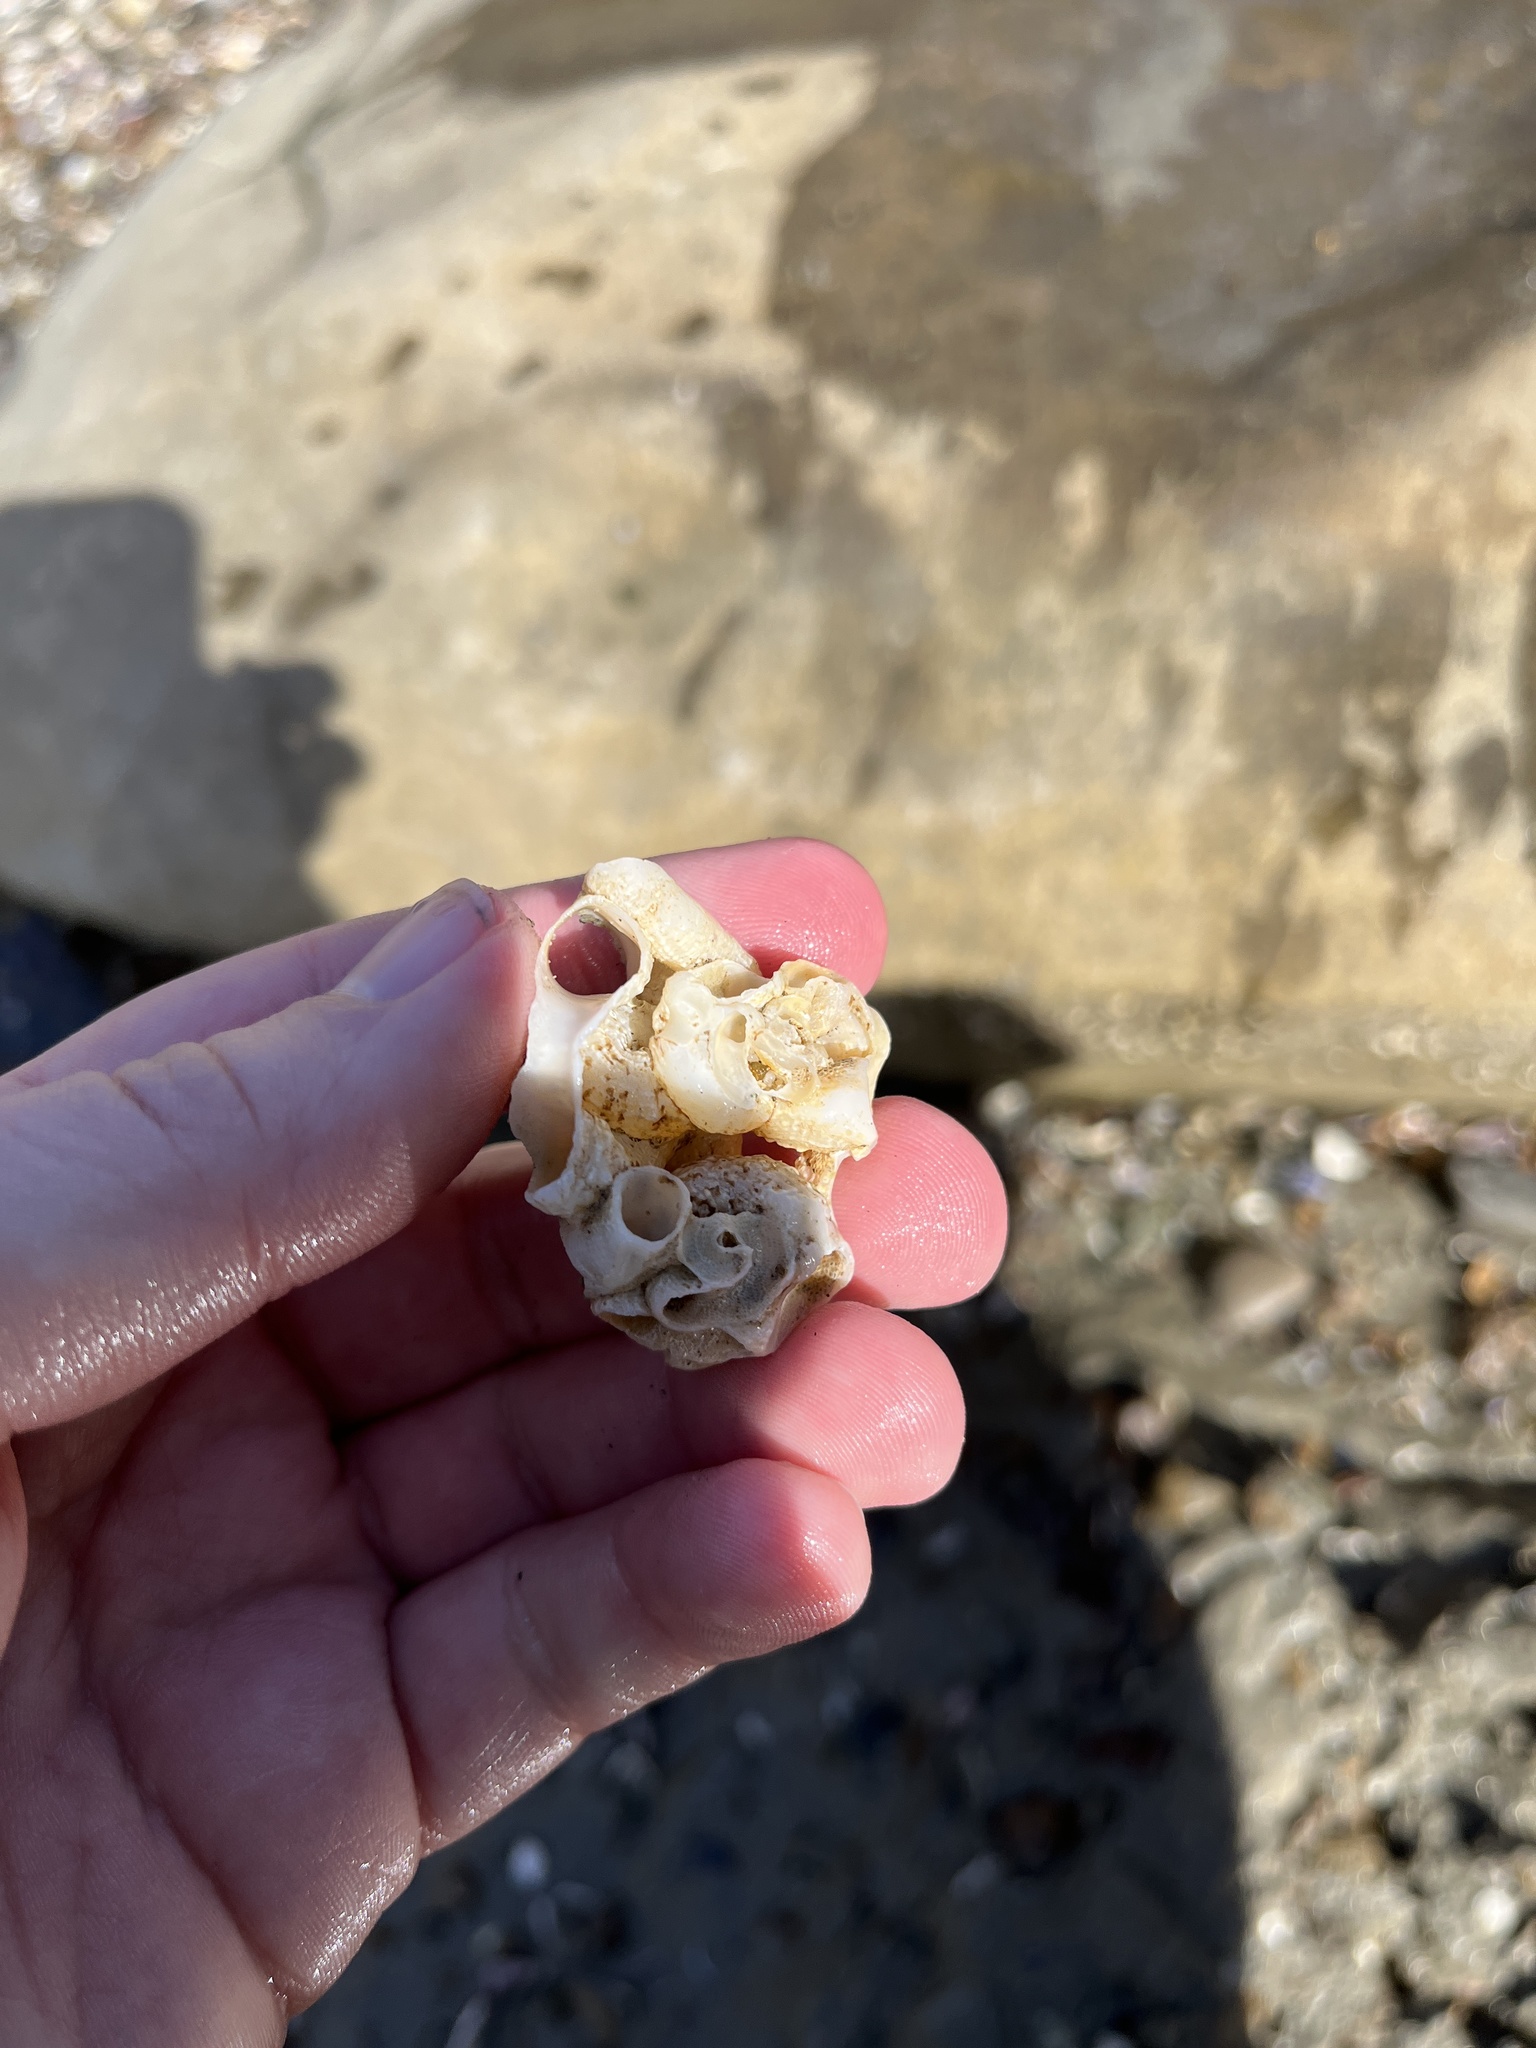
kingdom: Animalia
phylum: Mollusca
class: Gastropoda
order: Littorinimorpha
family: Vermetidae
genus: Thylacodes
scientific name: Thylacodes squamigerus
